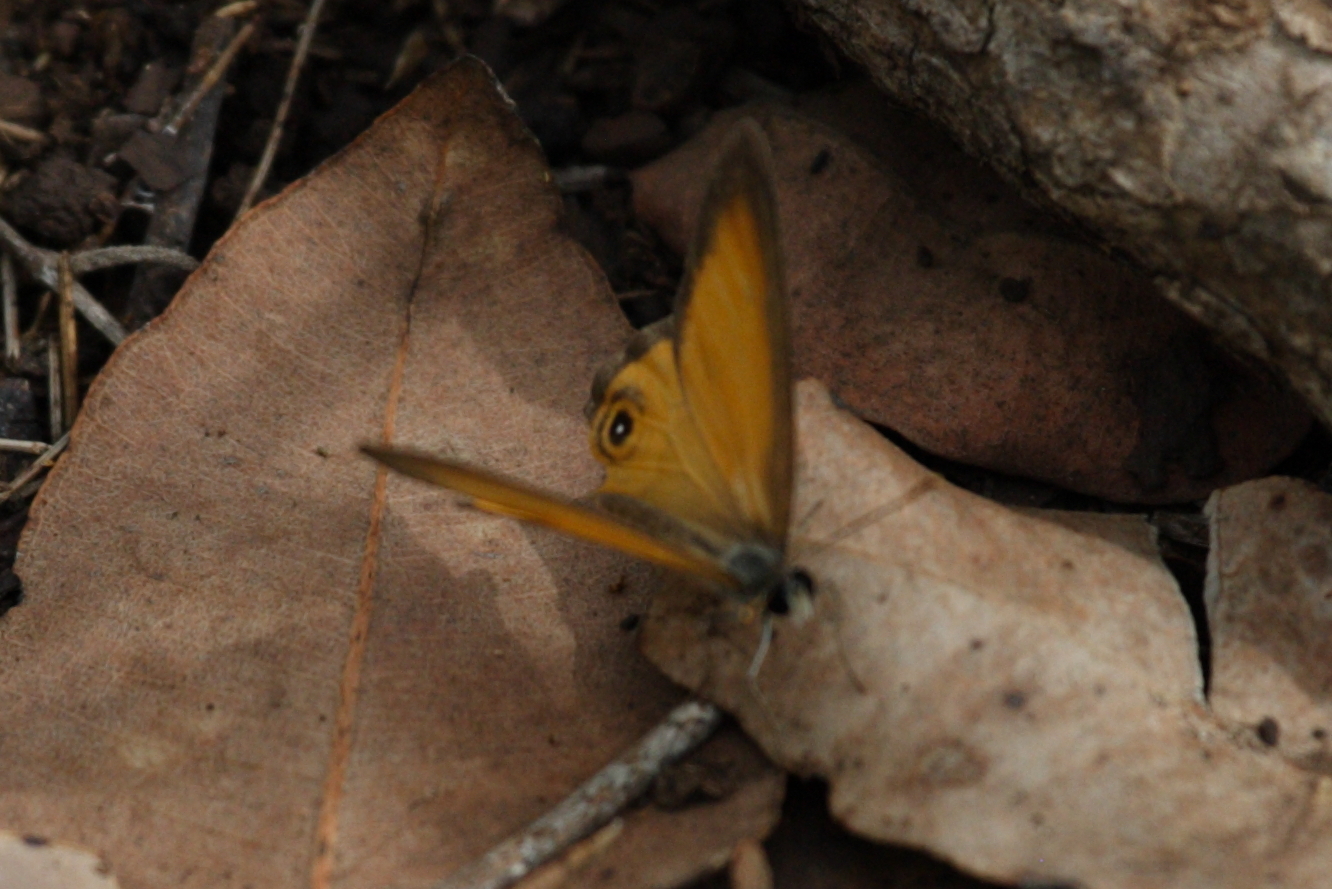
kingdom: Animalia
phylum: Arthropoda
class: Insecta
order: Lepidoptera
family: Nymphalidae
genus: Hypocysta
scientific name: Hypocysta adiante
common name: Orange ringlet
